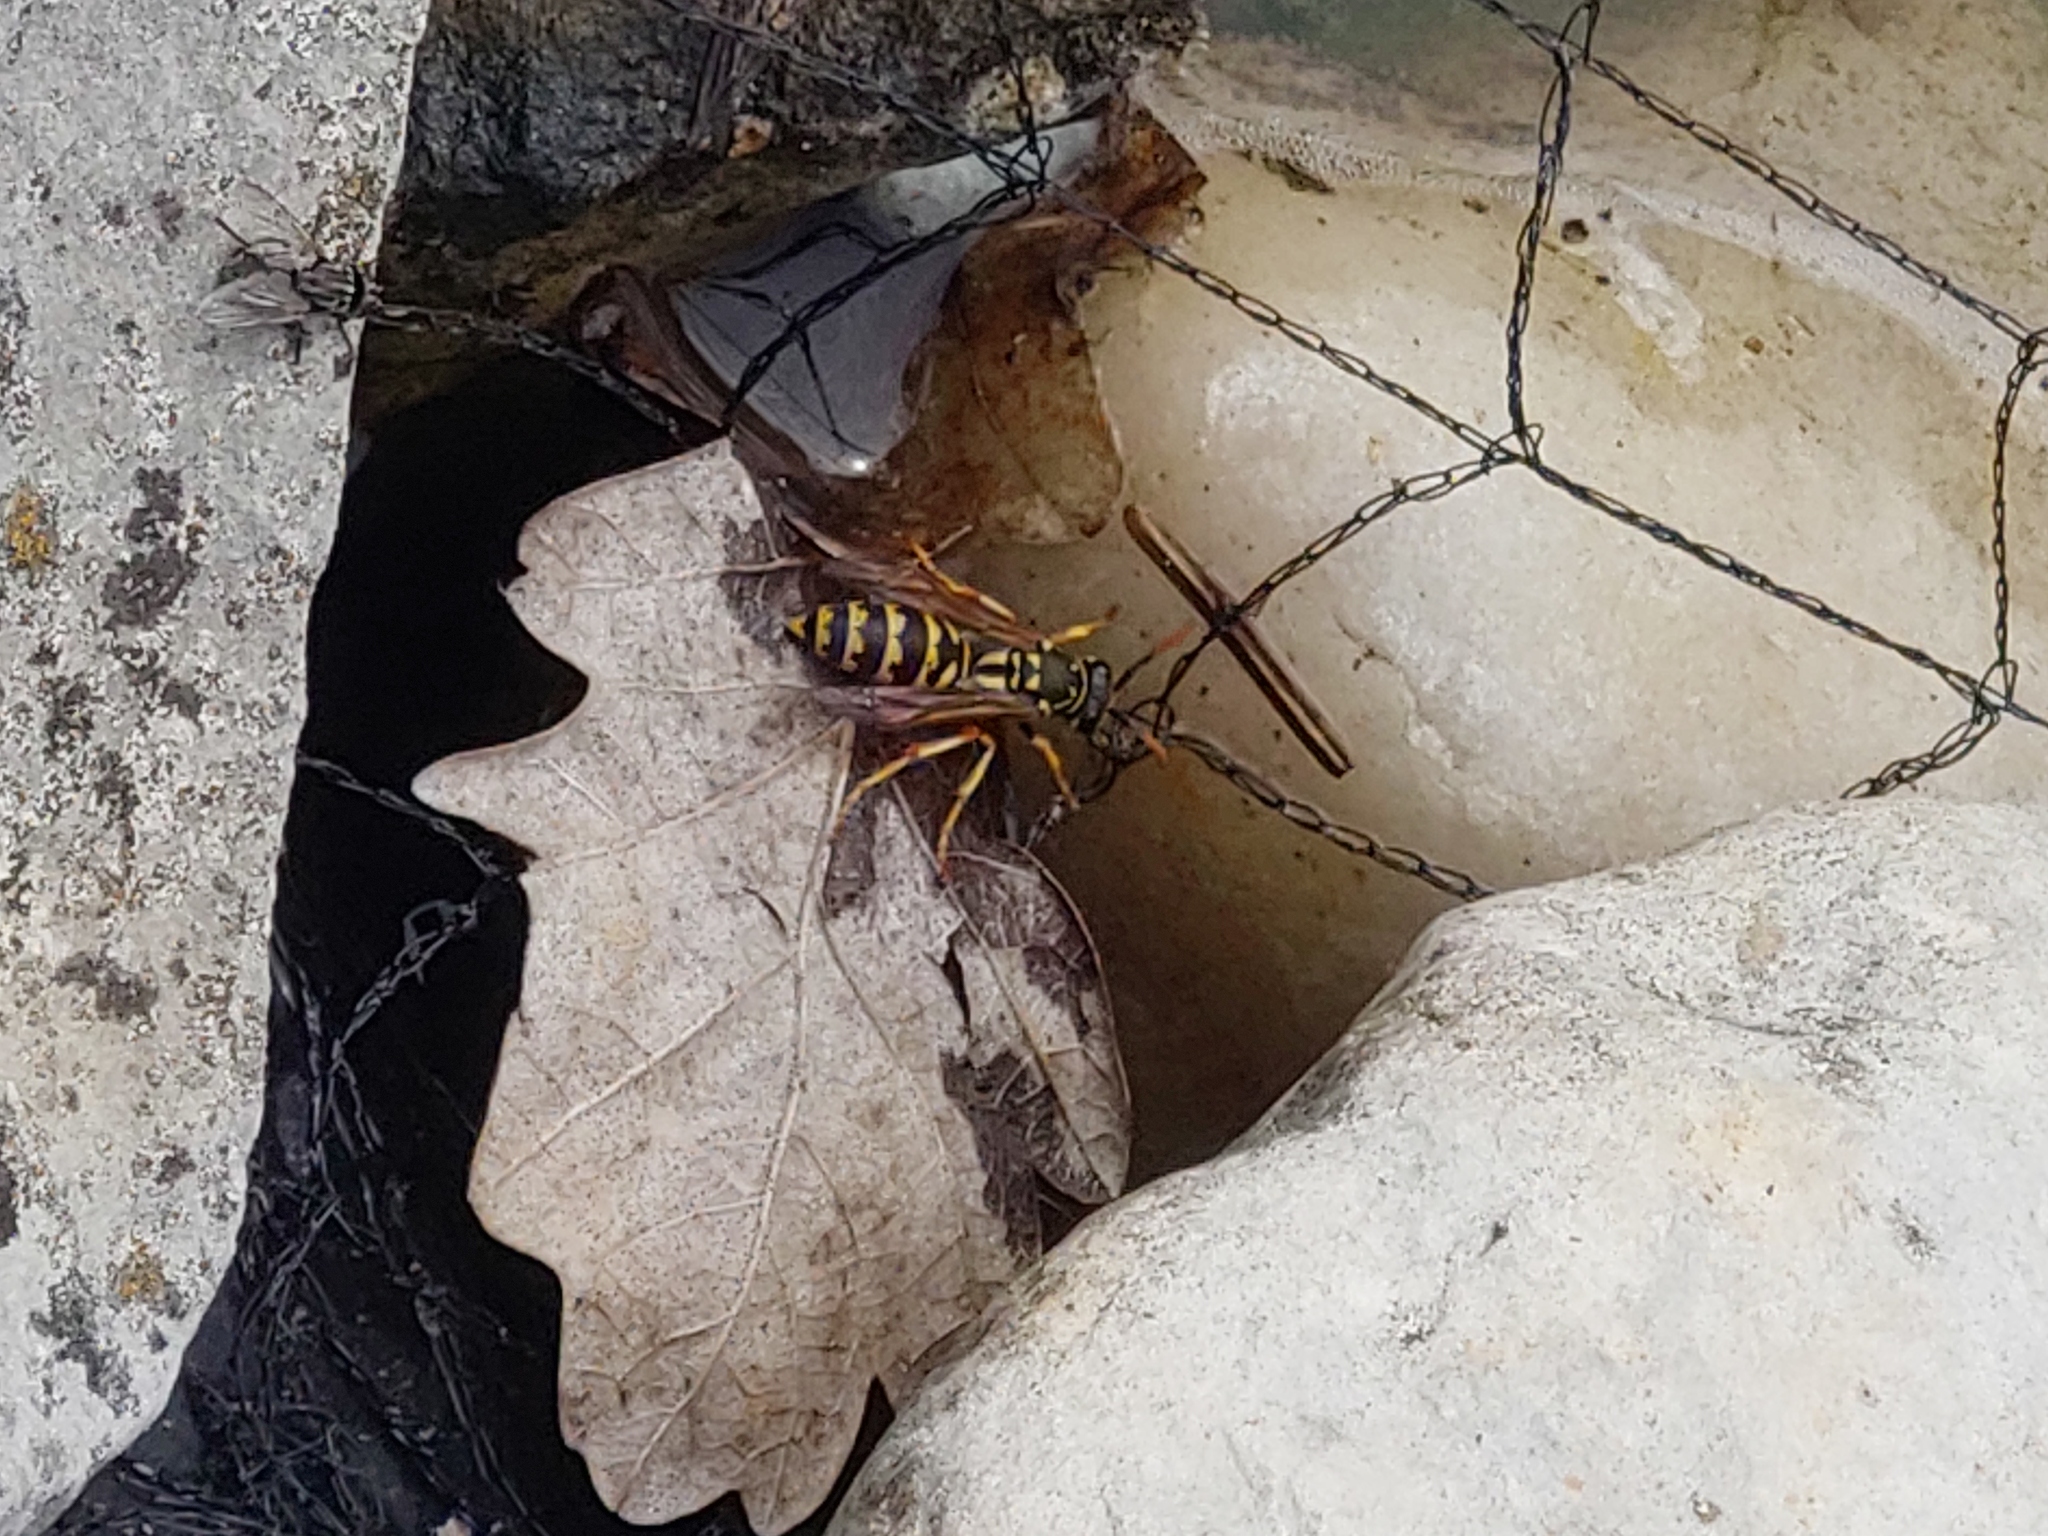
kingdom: Animalia
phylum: Arthropoda
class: Insecta
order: Hymenoptera
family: Eumenidae
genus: Polistes
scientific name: Polistes dominula
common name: Paper wasp
